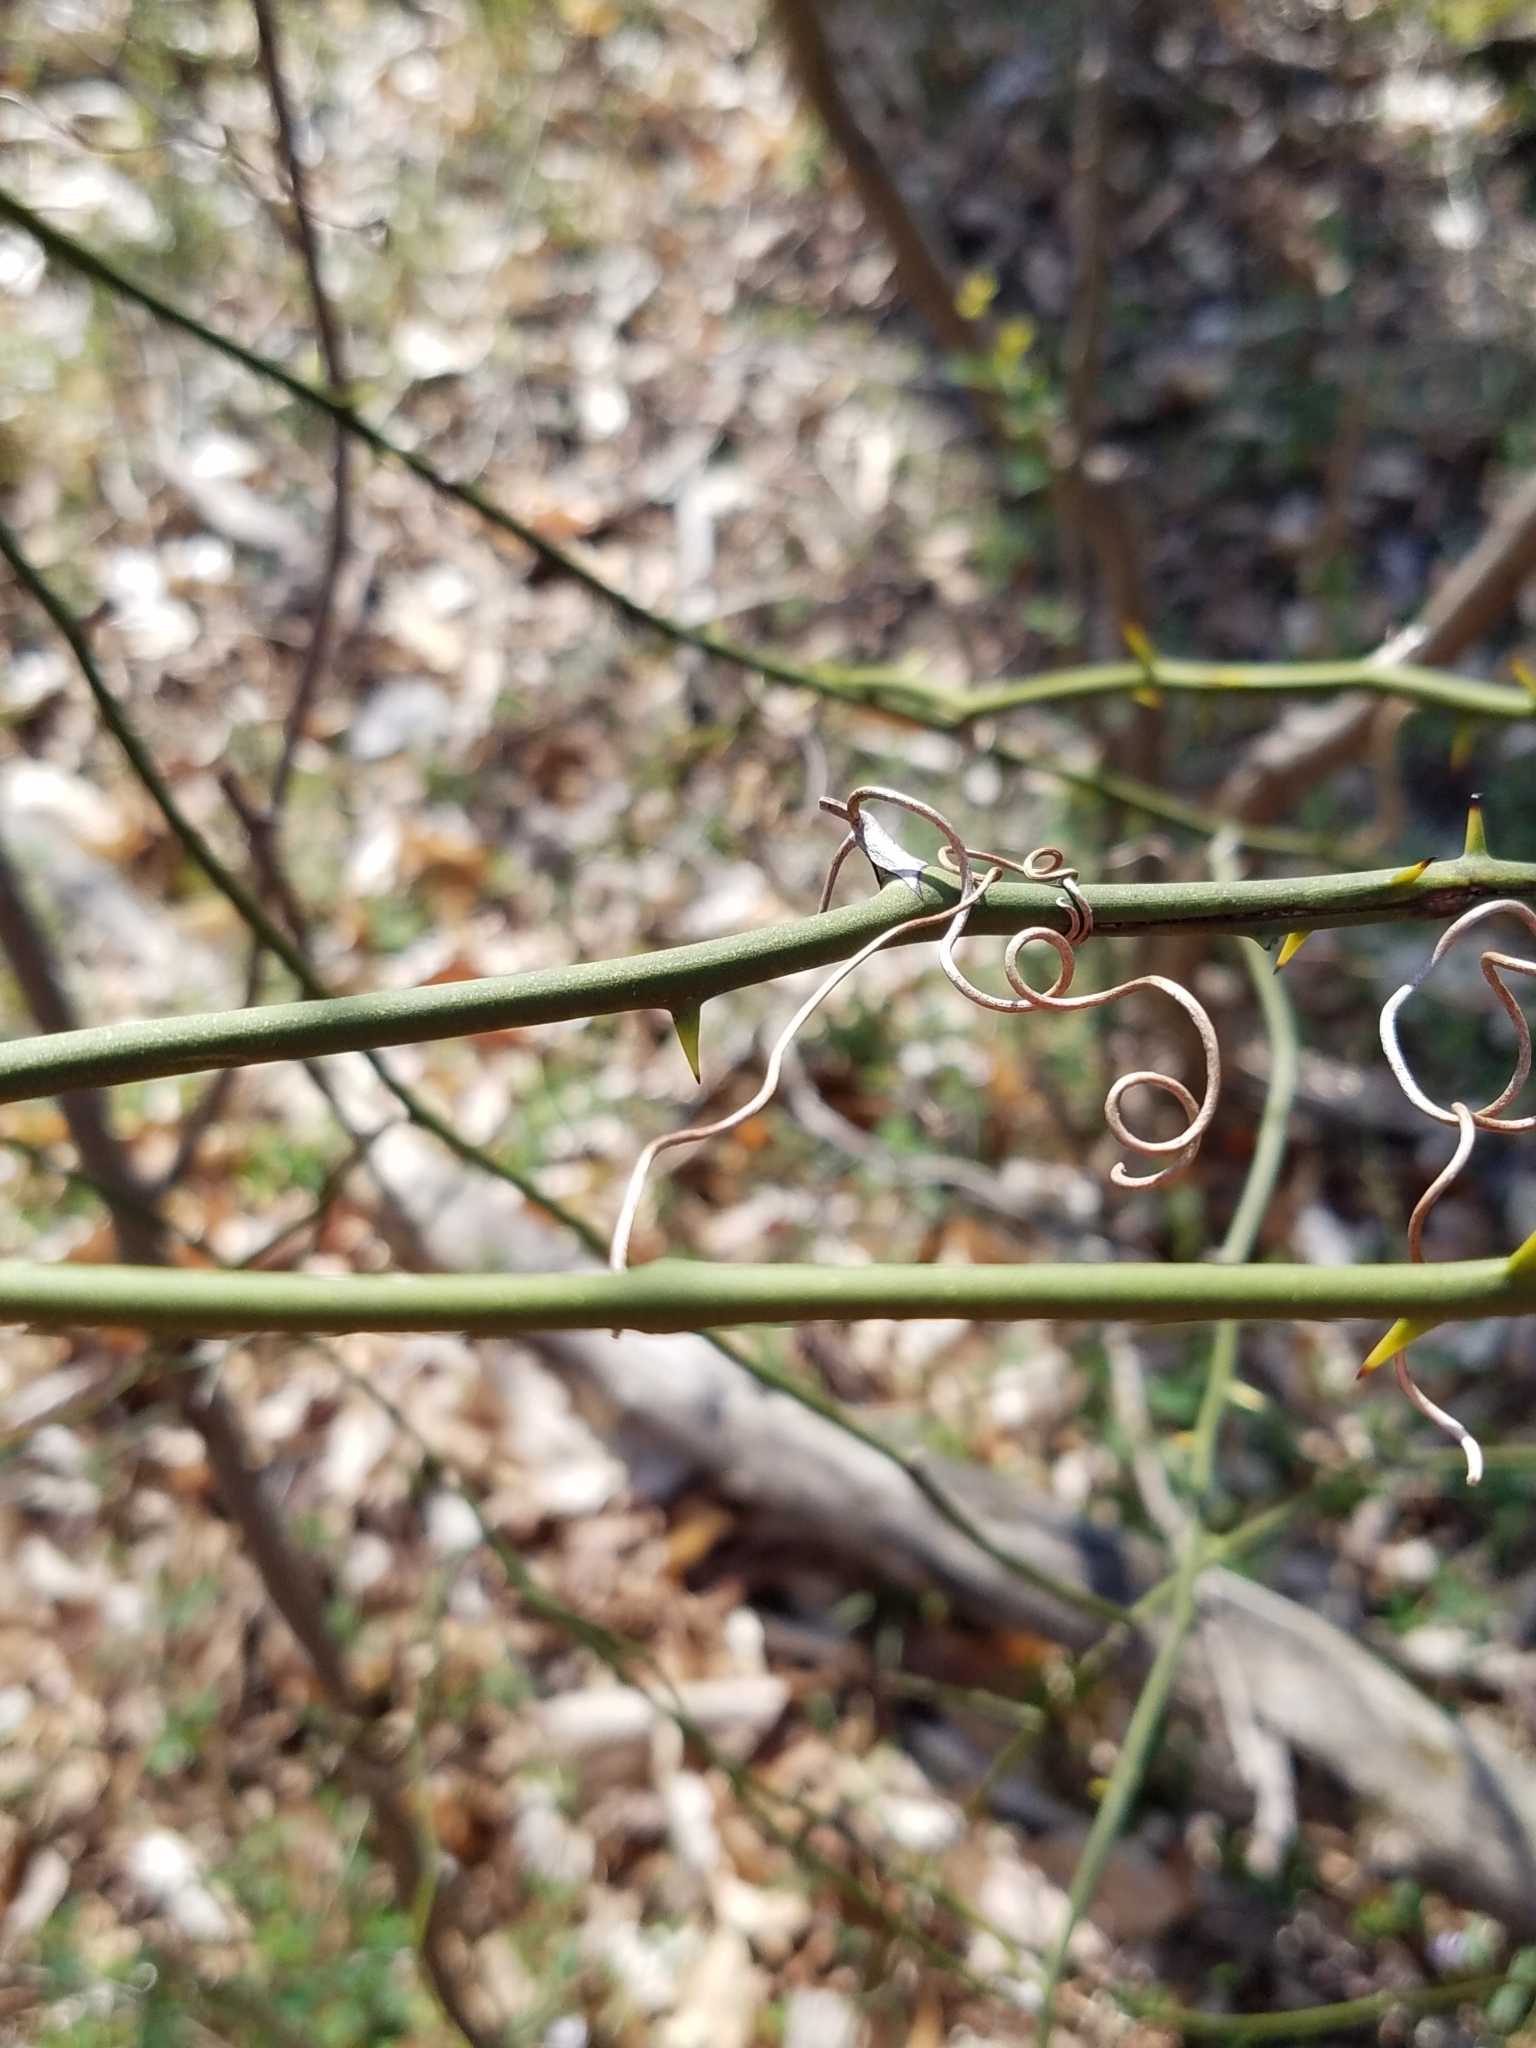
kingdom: Plantae
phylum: Tracheophyta
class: Liliopsida
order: Liliales
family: Smilacaceae
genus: Smilax
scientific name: Smilax rotundifolia
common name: Bullbriar
